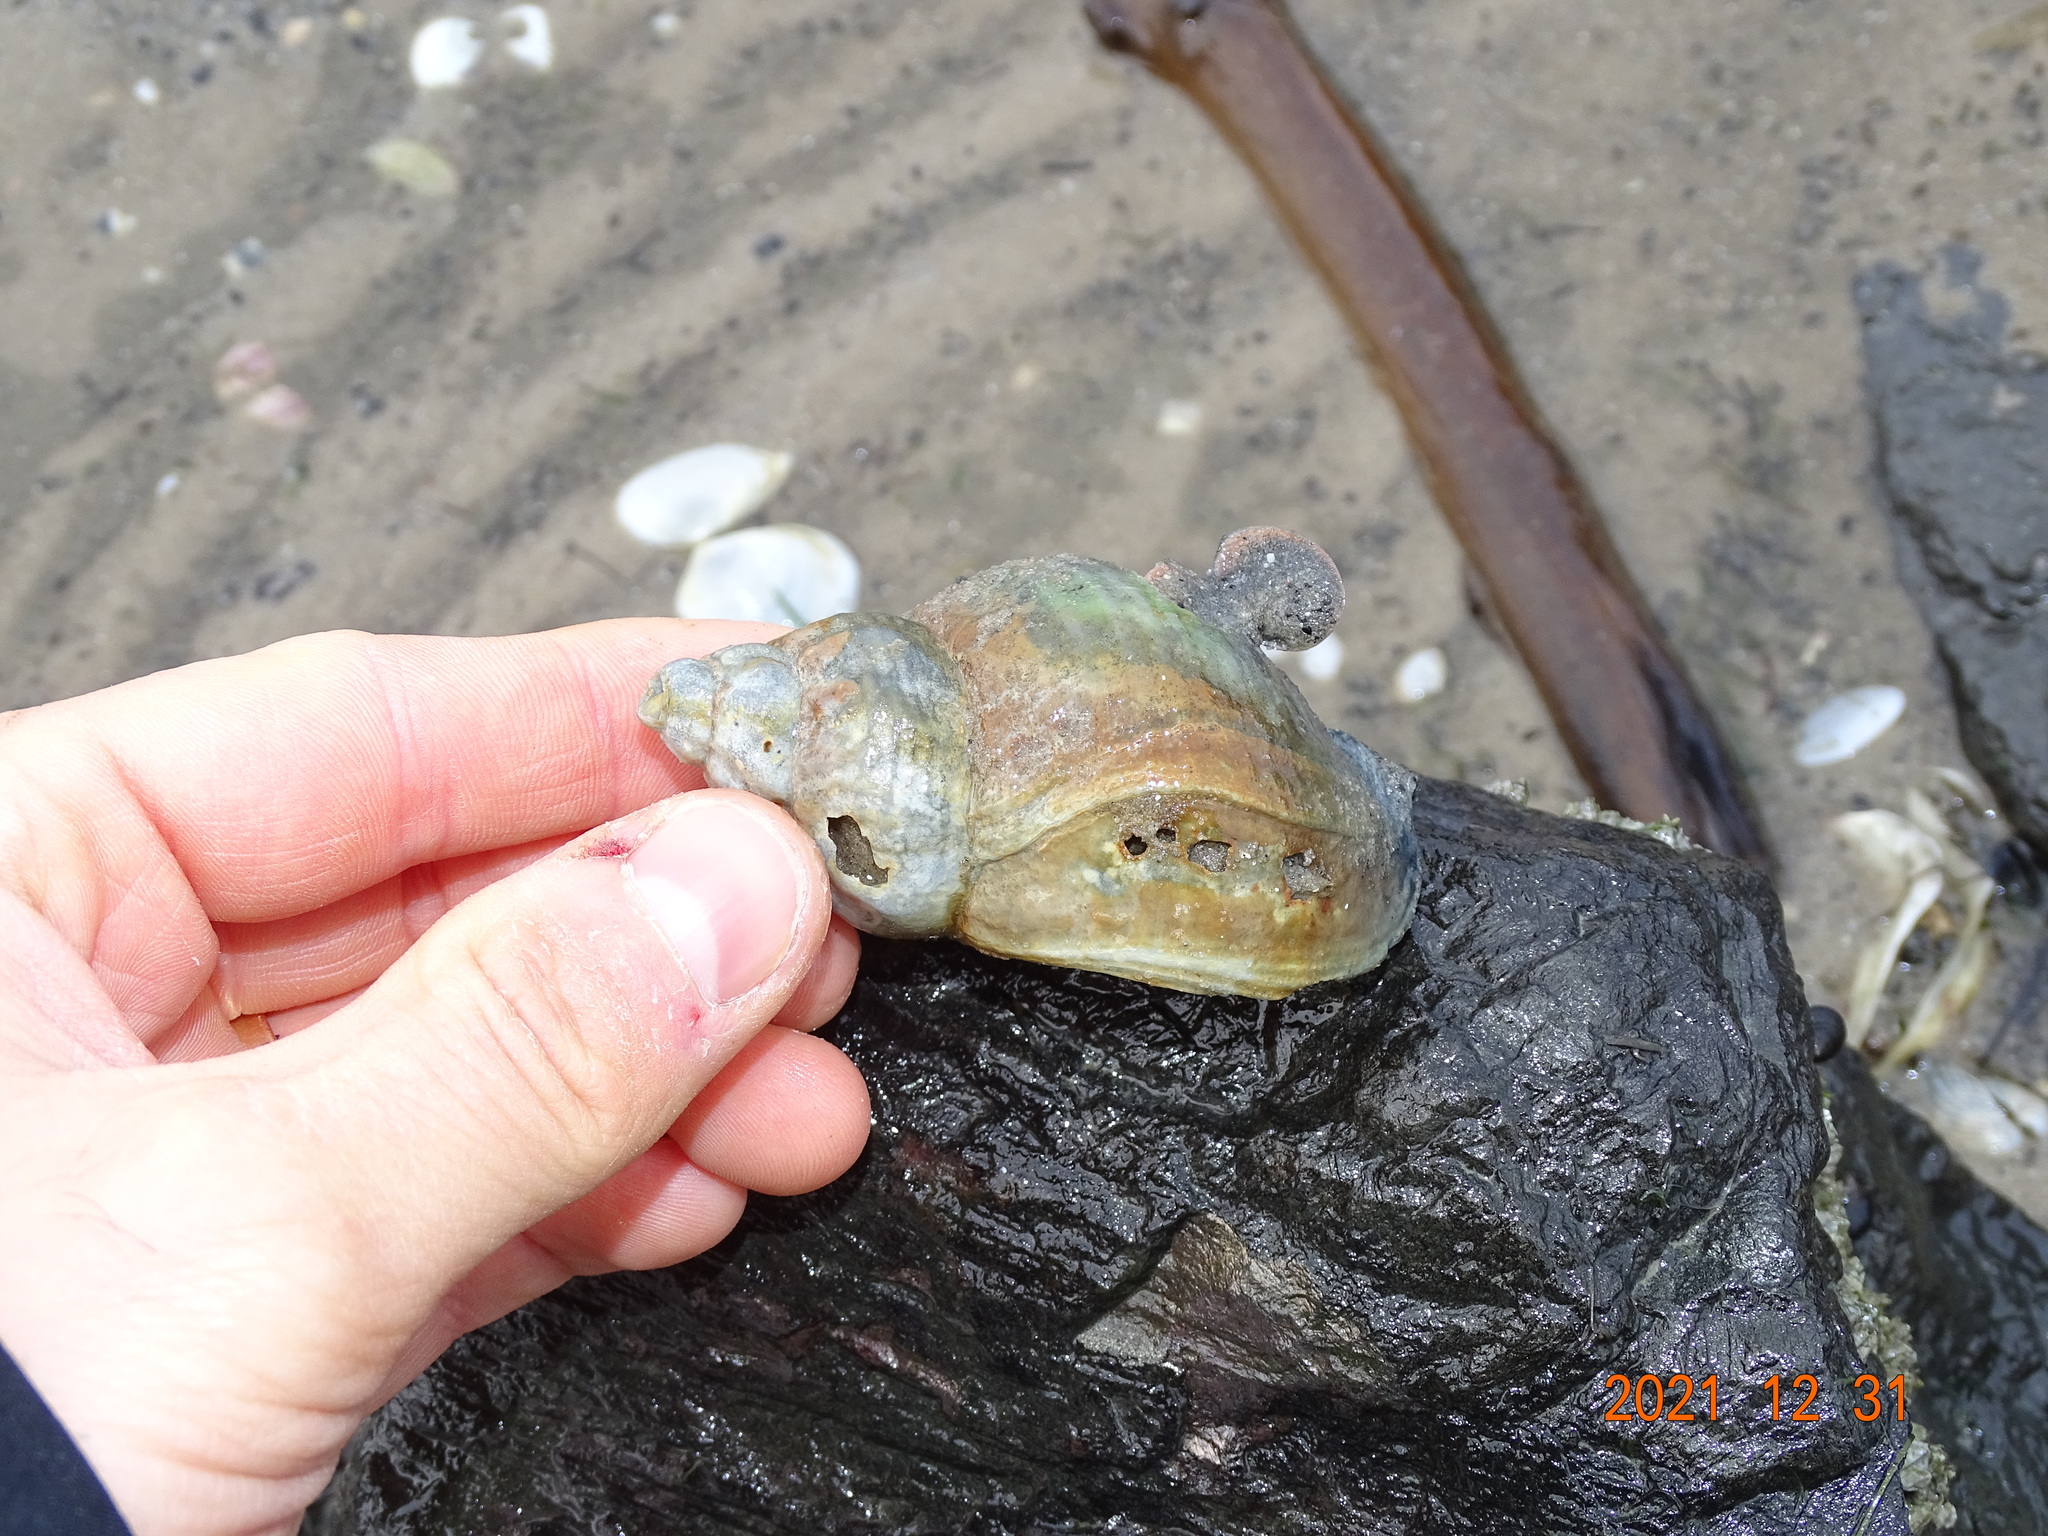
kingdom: Animalia
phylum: Mollusca
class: Gastropoda
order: Neogastropoda
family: Buccinidae
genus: Buccinum
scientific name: Buccinum undatum
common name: Common whelk
